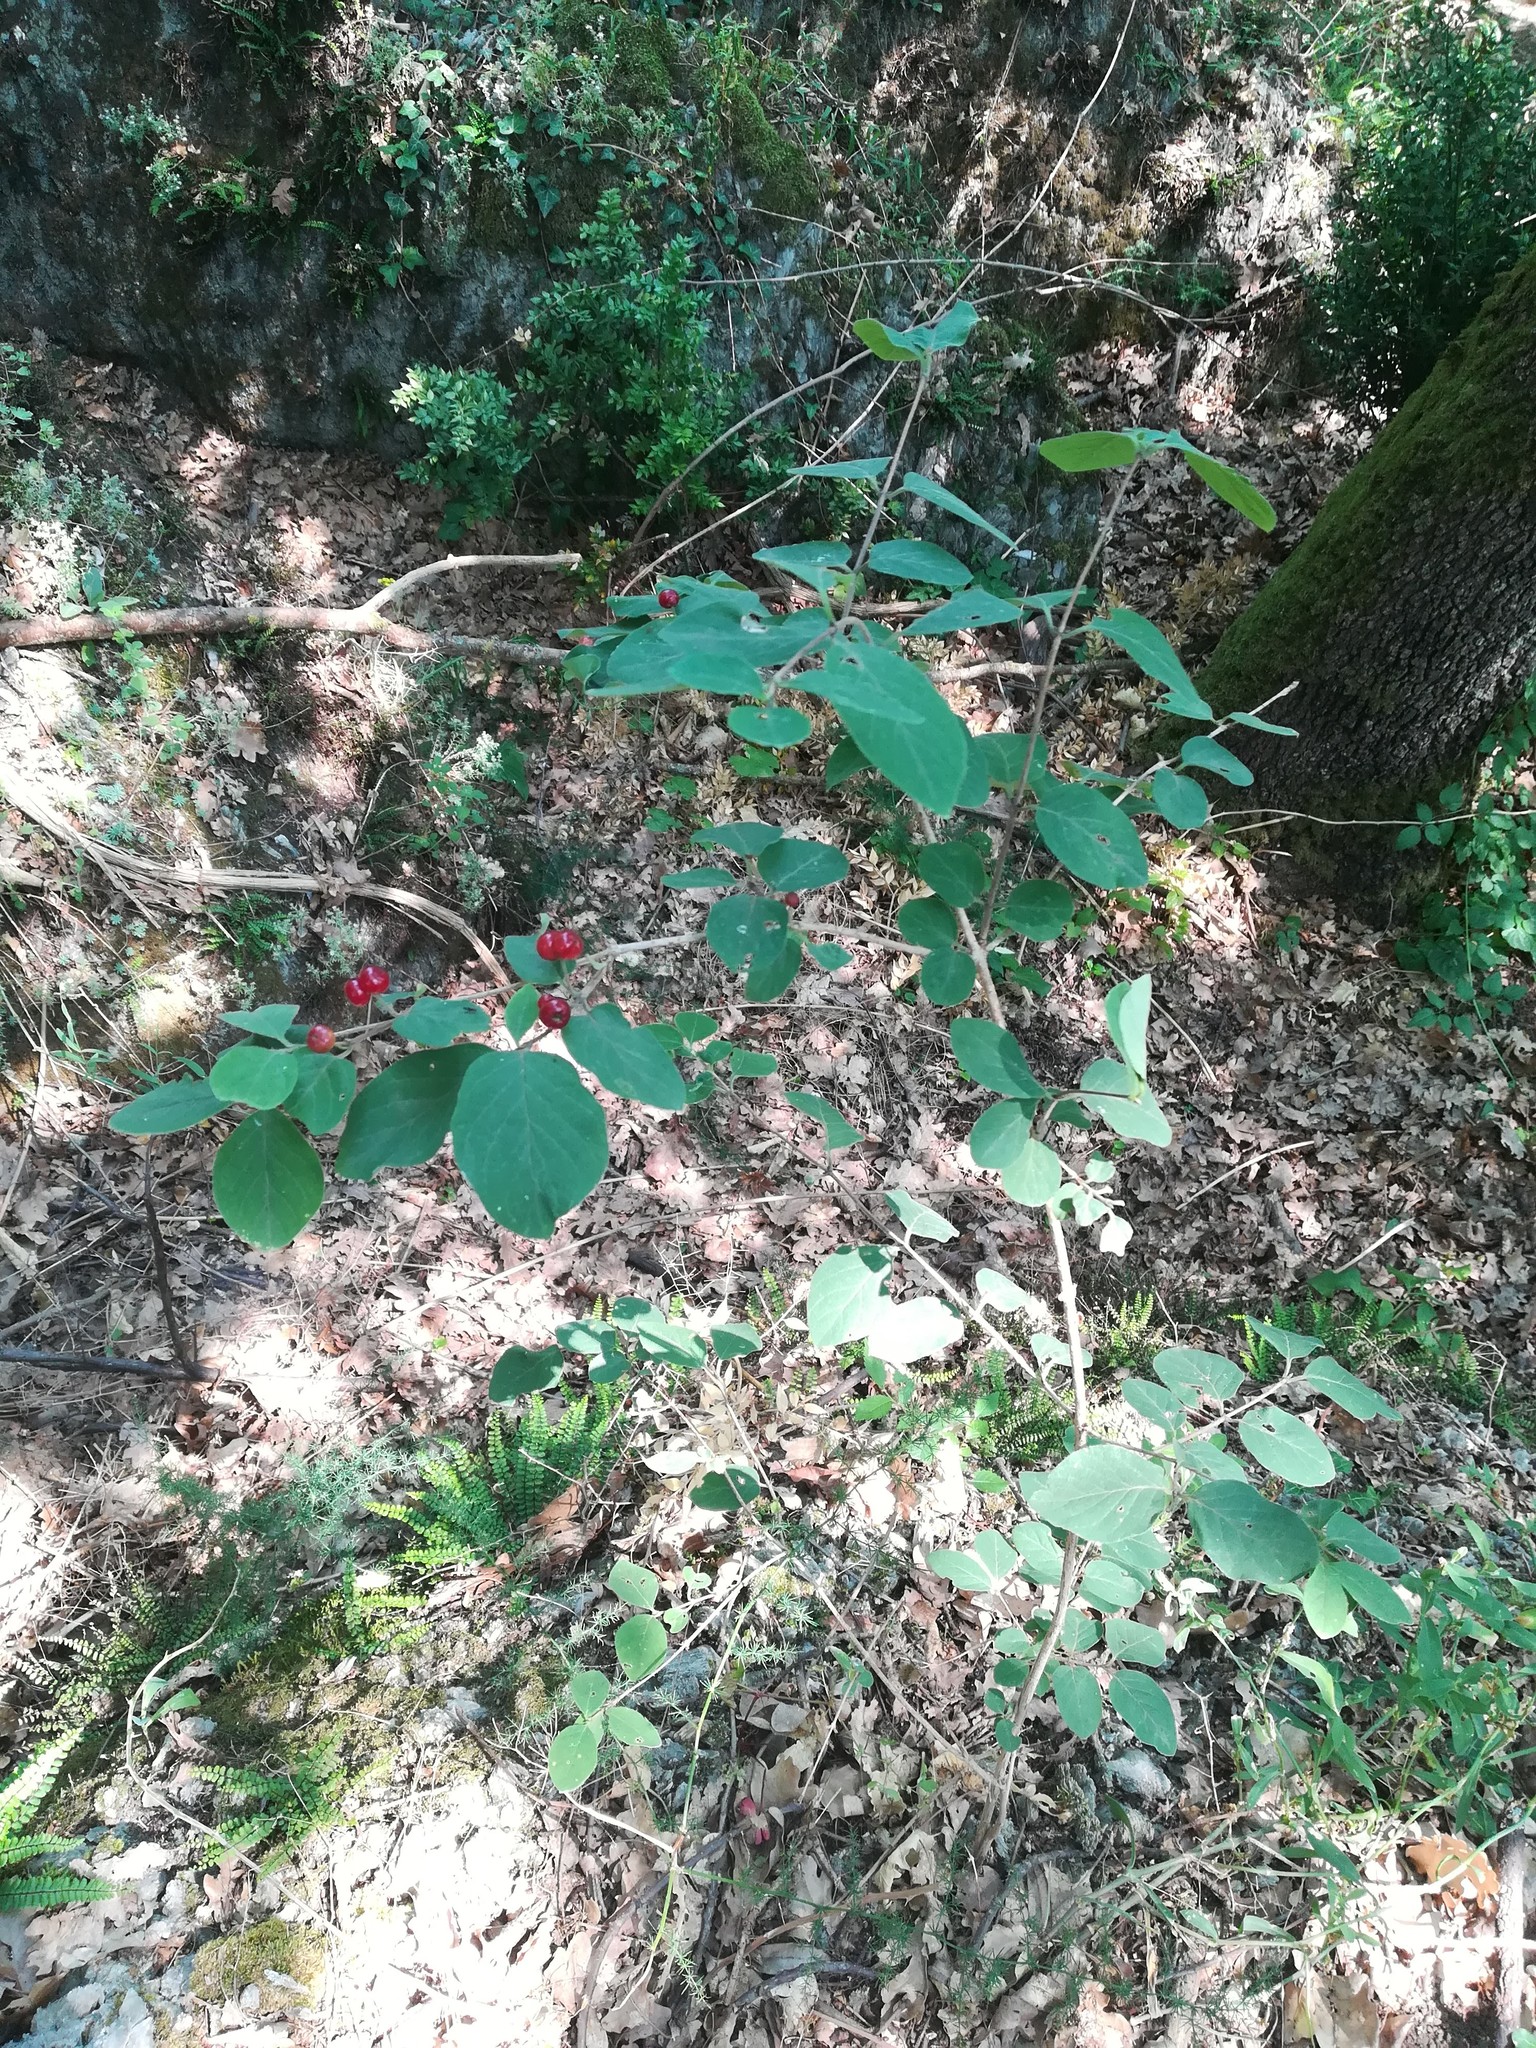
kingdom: Plantae
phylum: Tracheophyta
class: Magnoliopsida
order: Dipsacales
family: Caprifoliaceae
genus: Lonicera
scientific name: Lonicera xylosteum
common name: Fly honeysuckle
